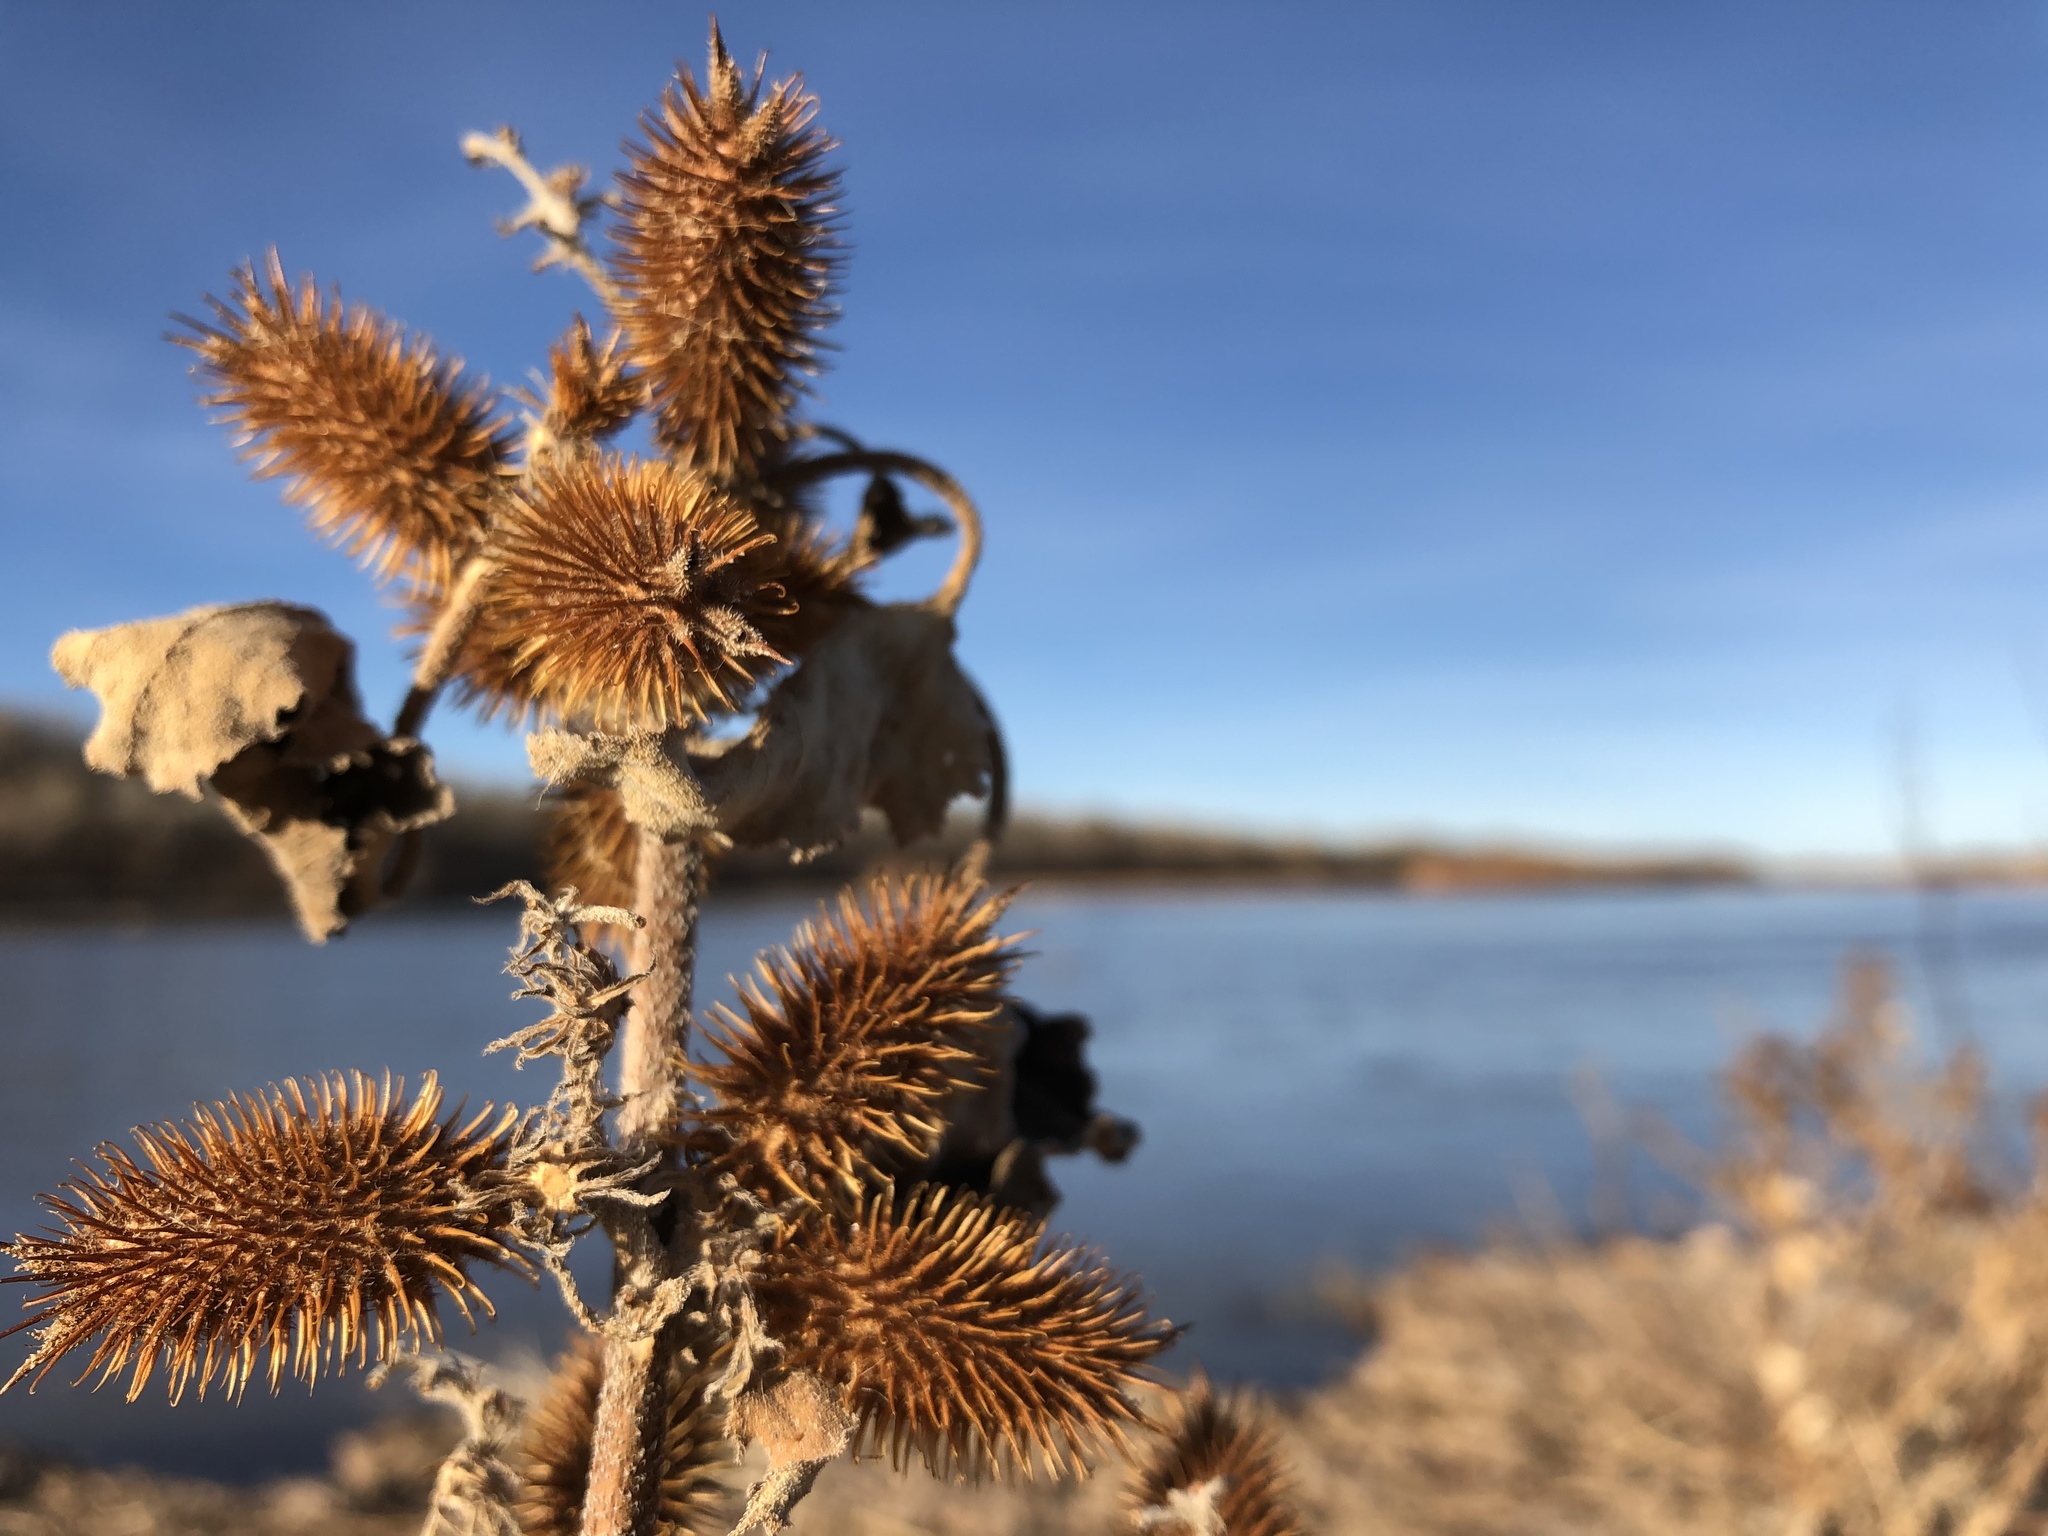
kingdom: Plantae
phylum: Tracheophyta
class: Magnoliopsida
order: Asterales
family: Asteraceae
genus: Xanthium
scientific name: Xanthium strumarium
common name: Rough cocklebur
